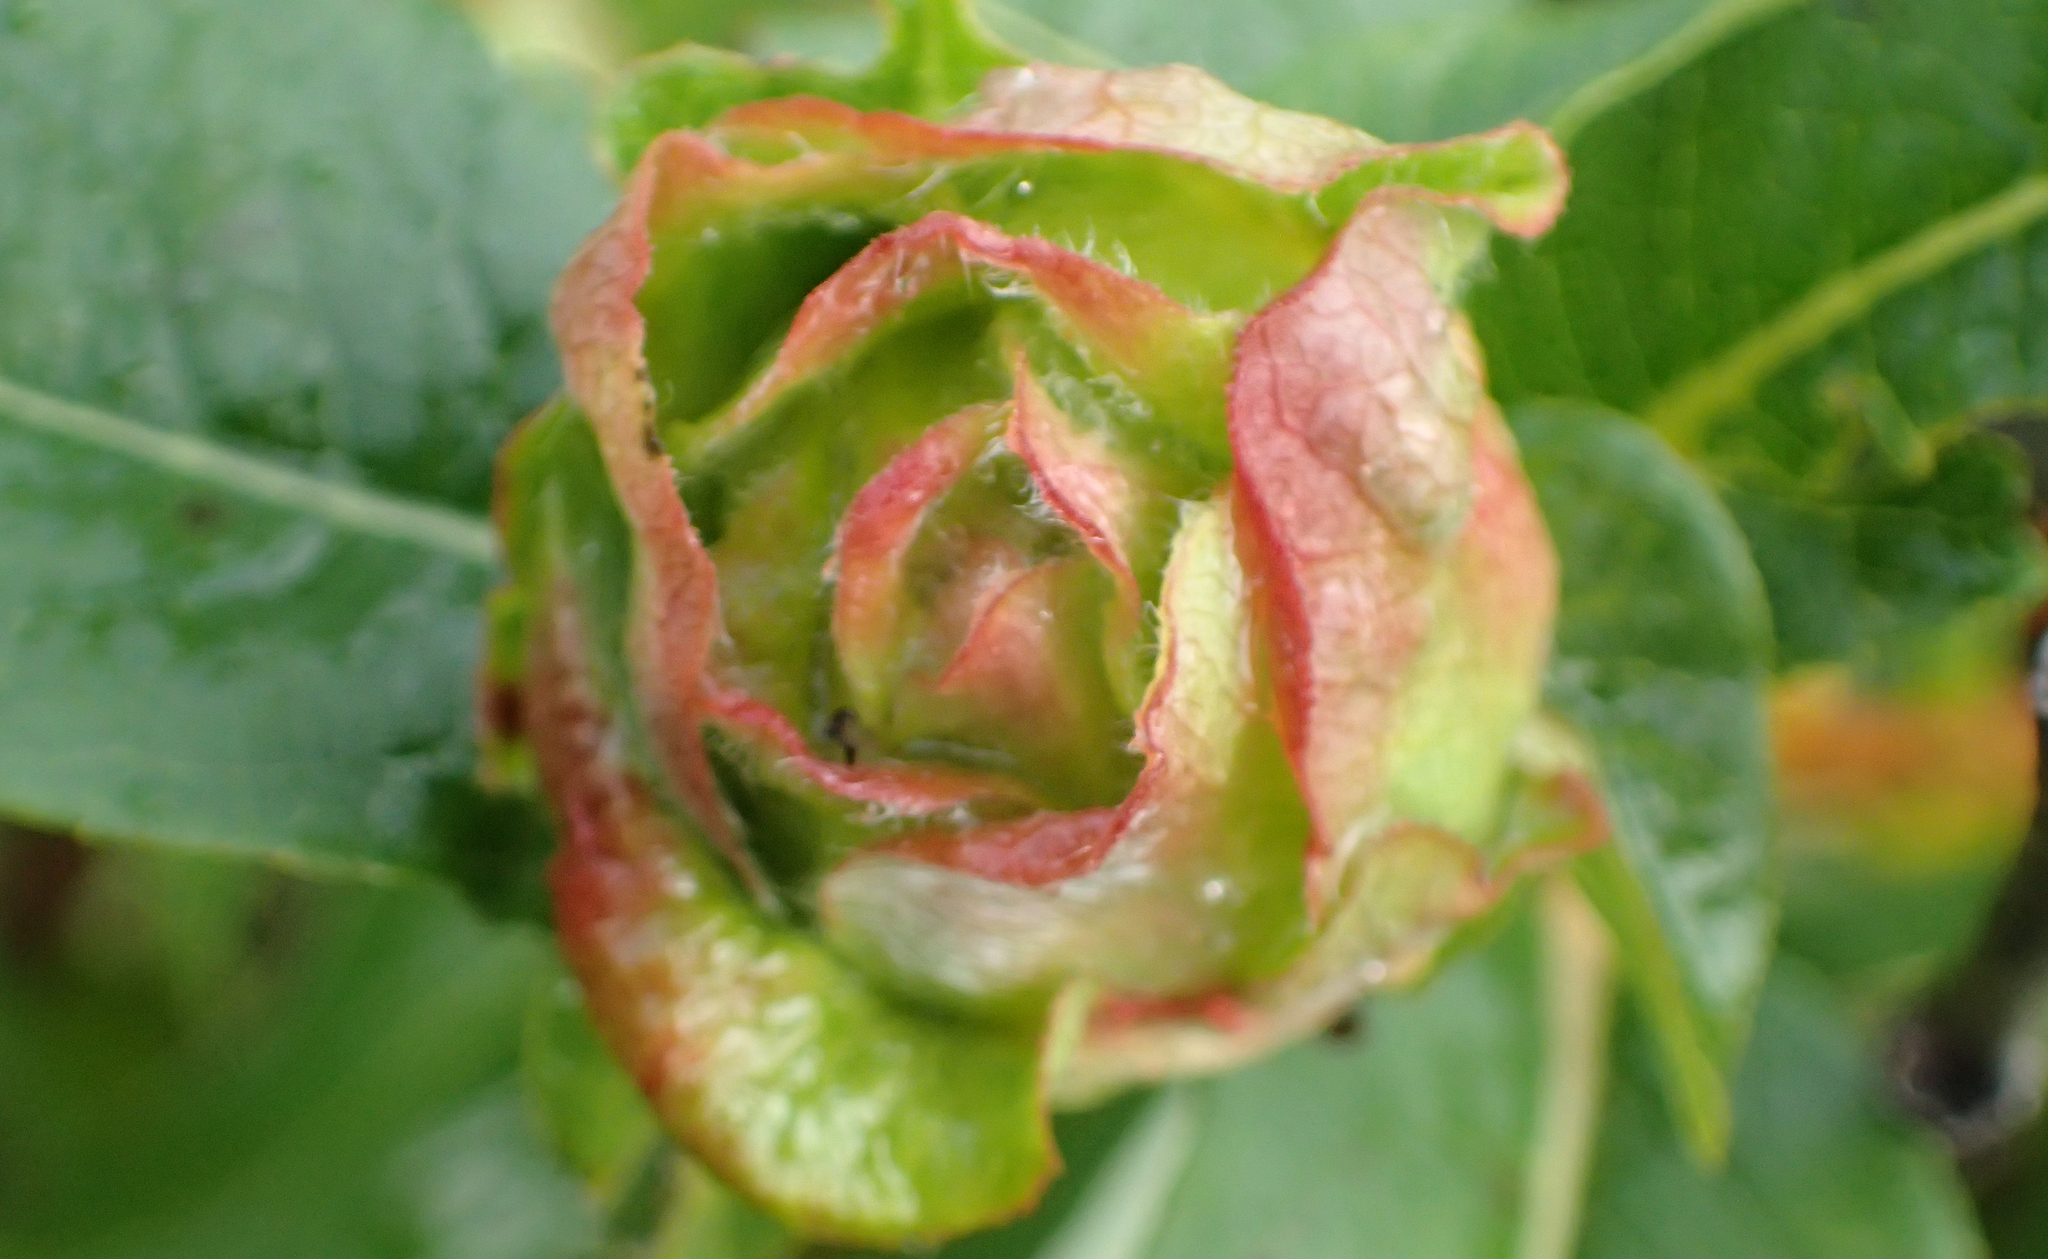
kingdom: Animalia
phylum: Arthropoda
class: Insecta
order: Diptera
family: Cecidomyiidae
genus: Rabdophaga
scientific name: Rabdophaga rosaria
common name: Willow rose gall midge
